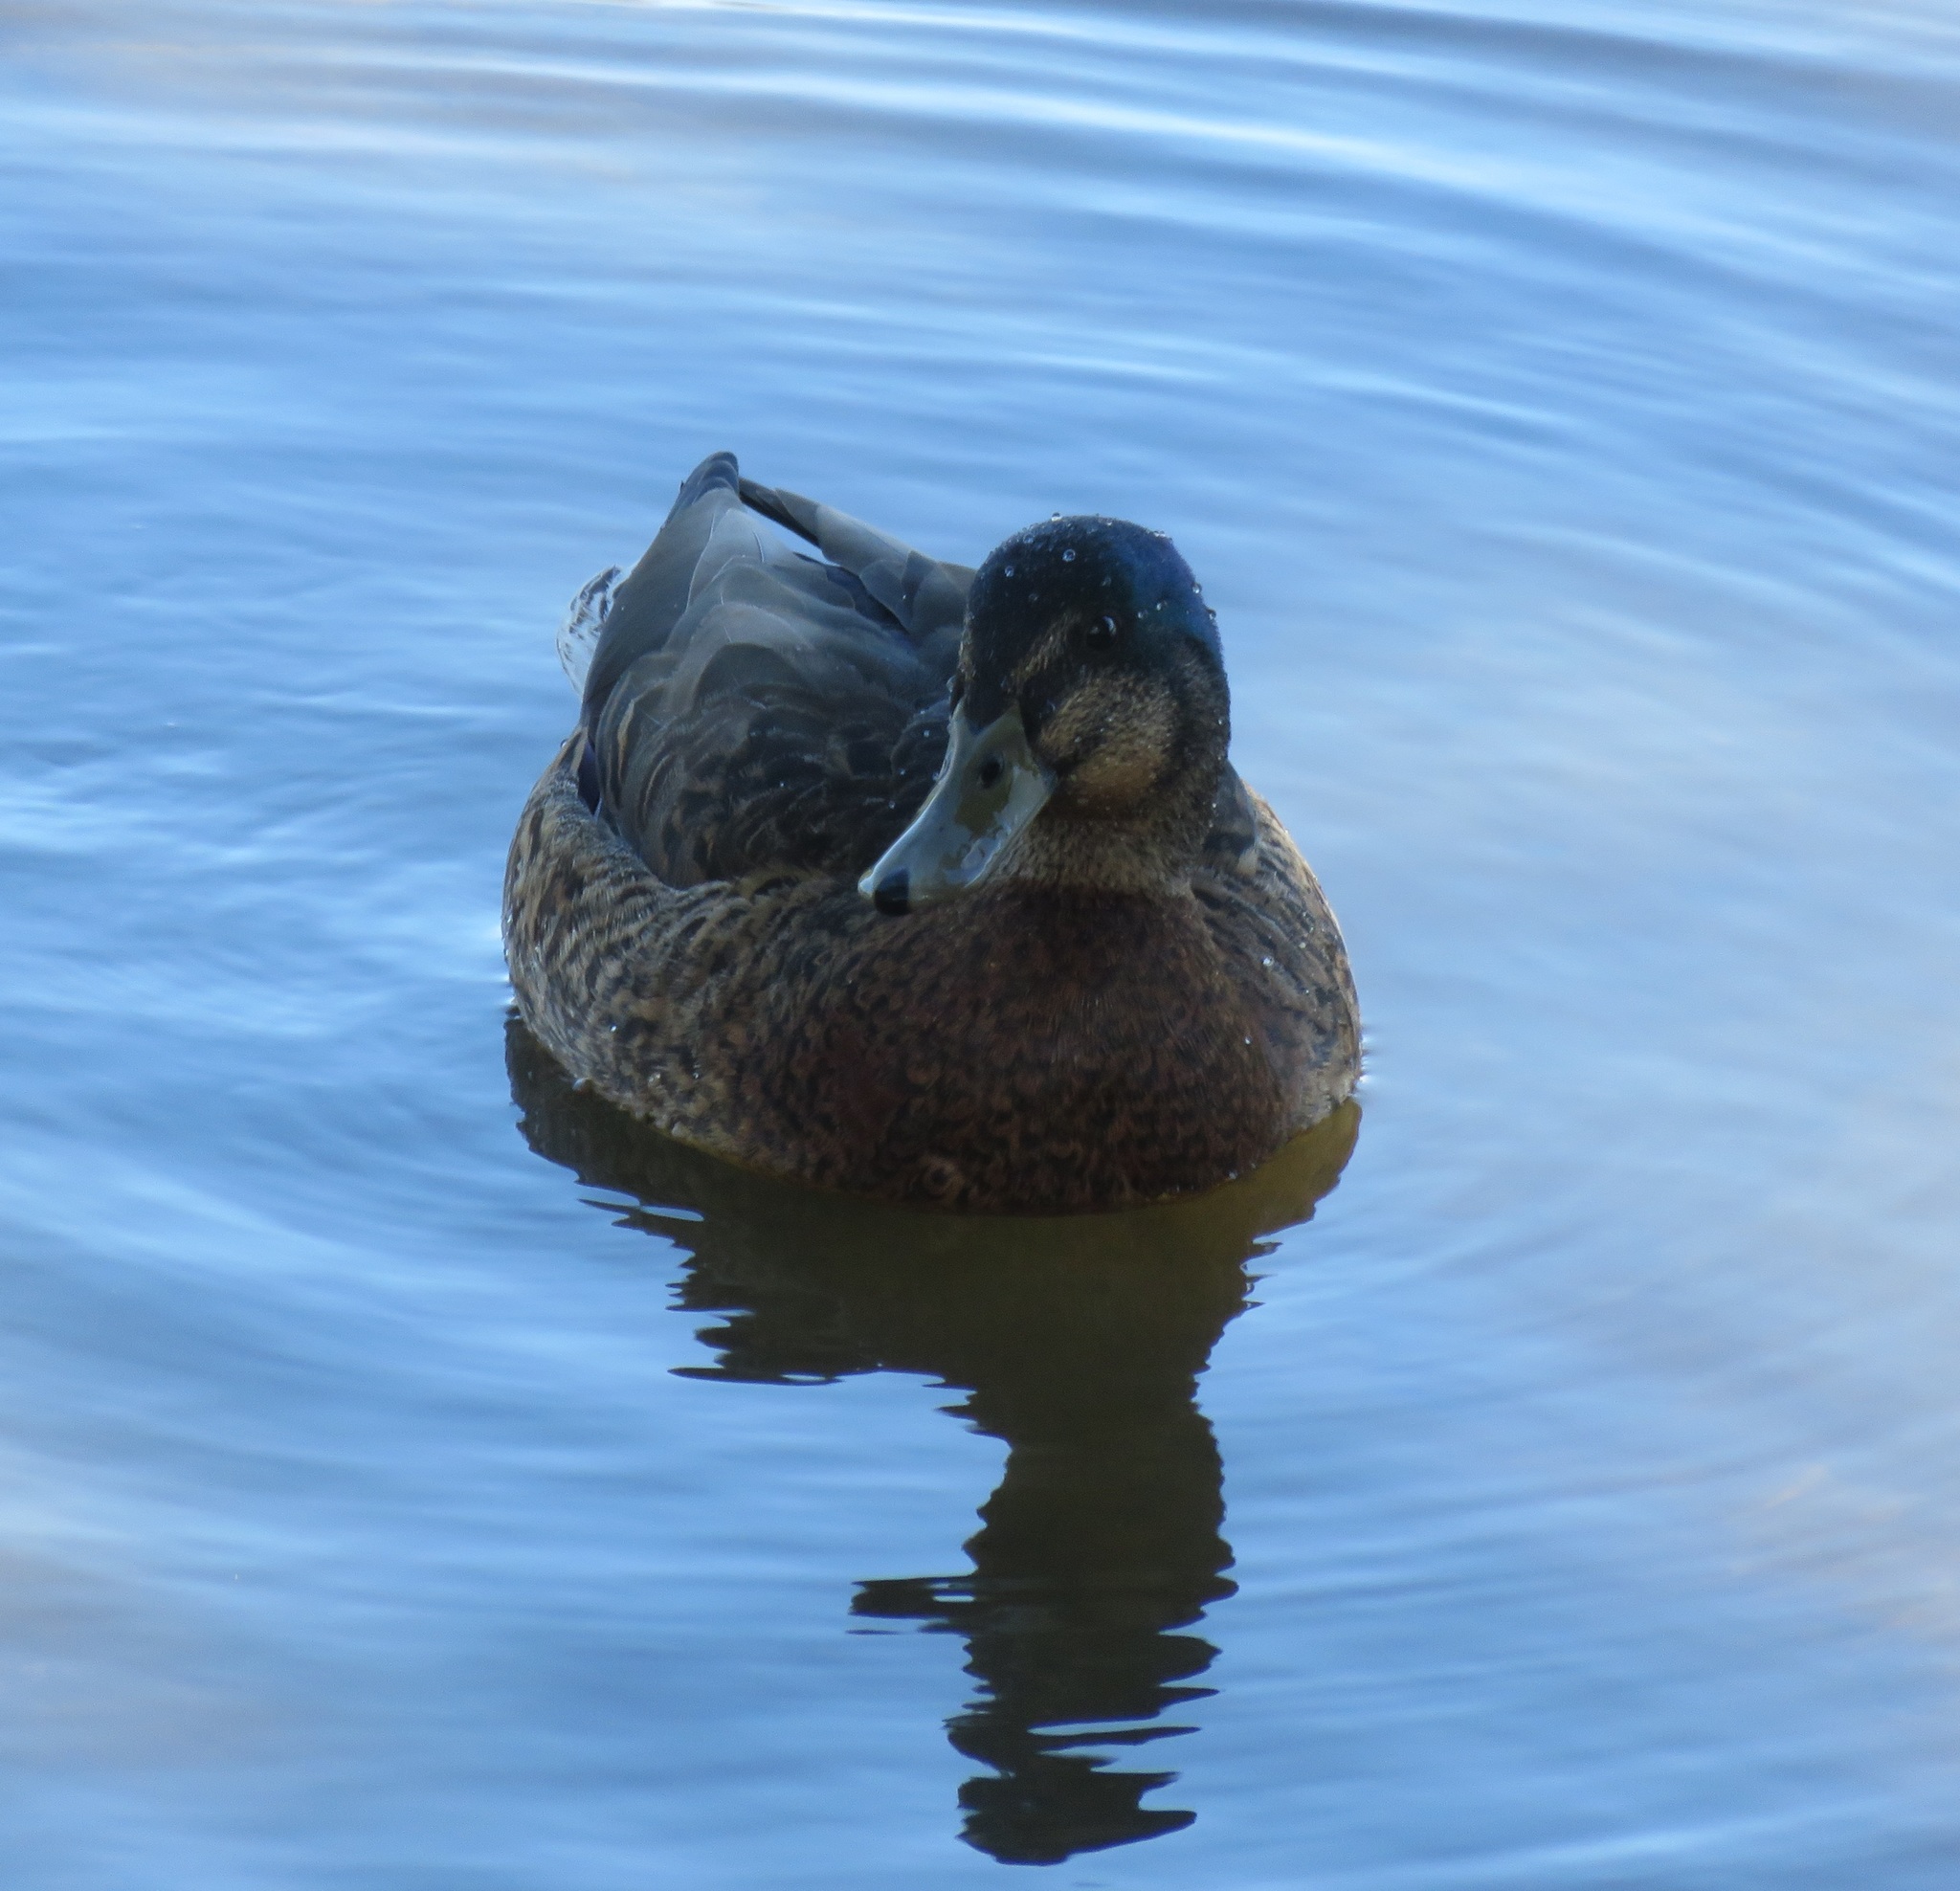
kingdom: Animalia
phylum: Chordata
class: Aves
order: Anseriformes
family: Anatidae
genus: Anas
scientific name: Anas
